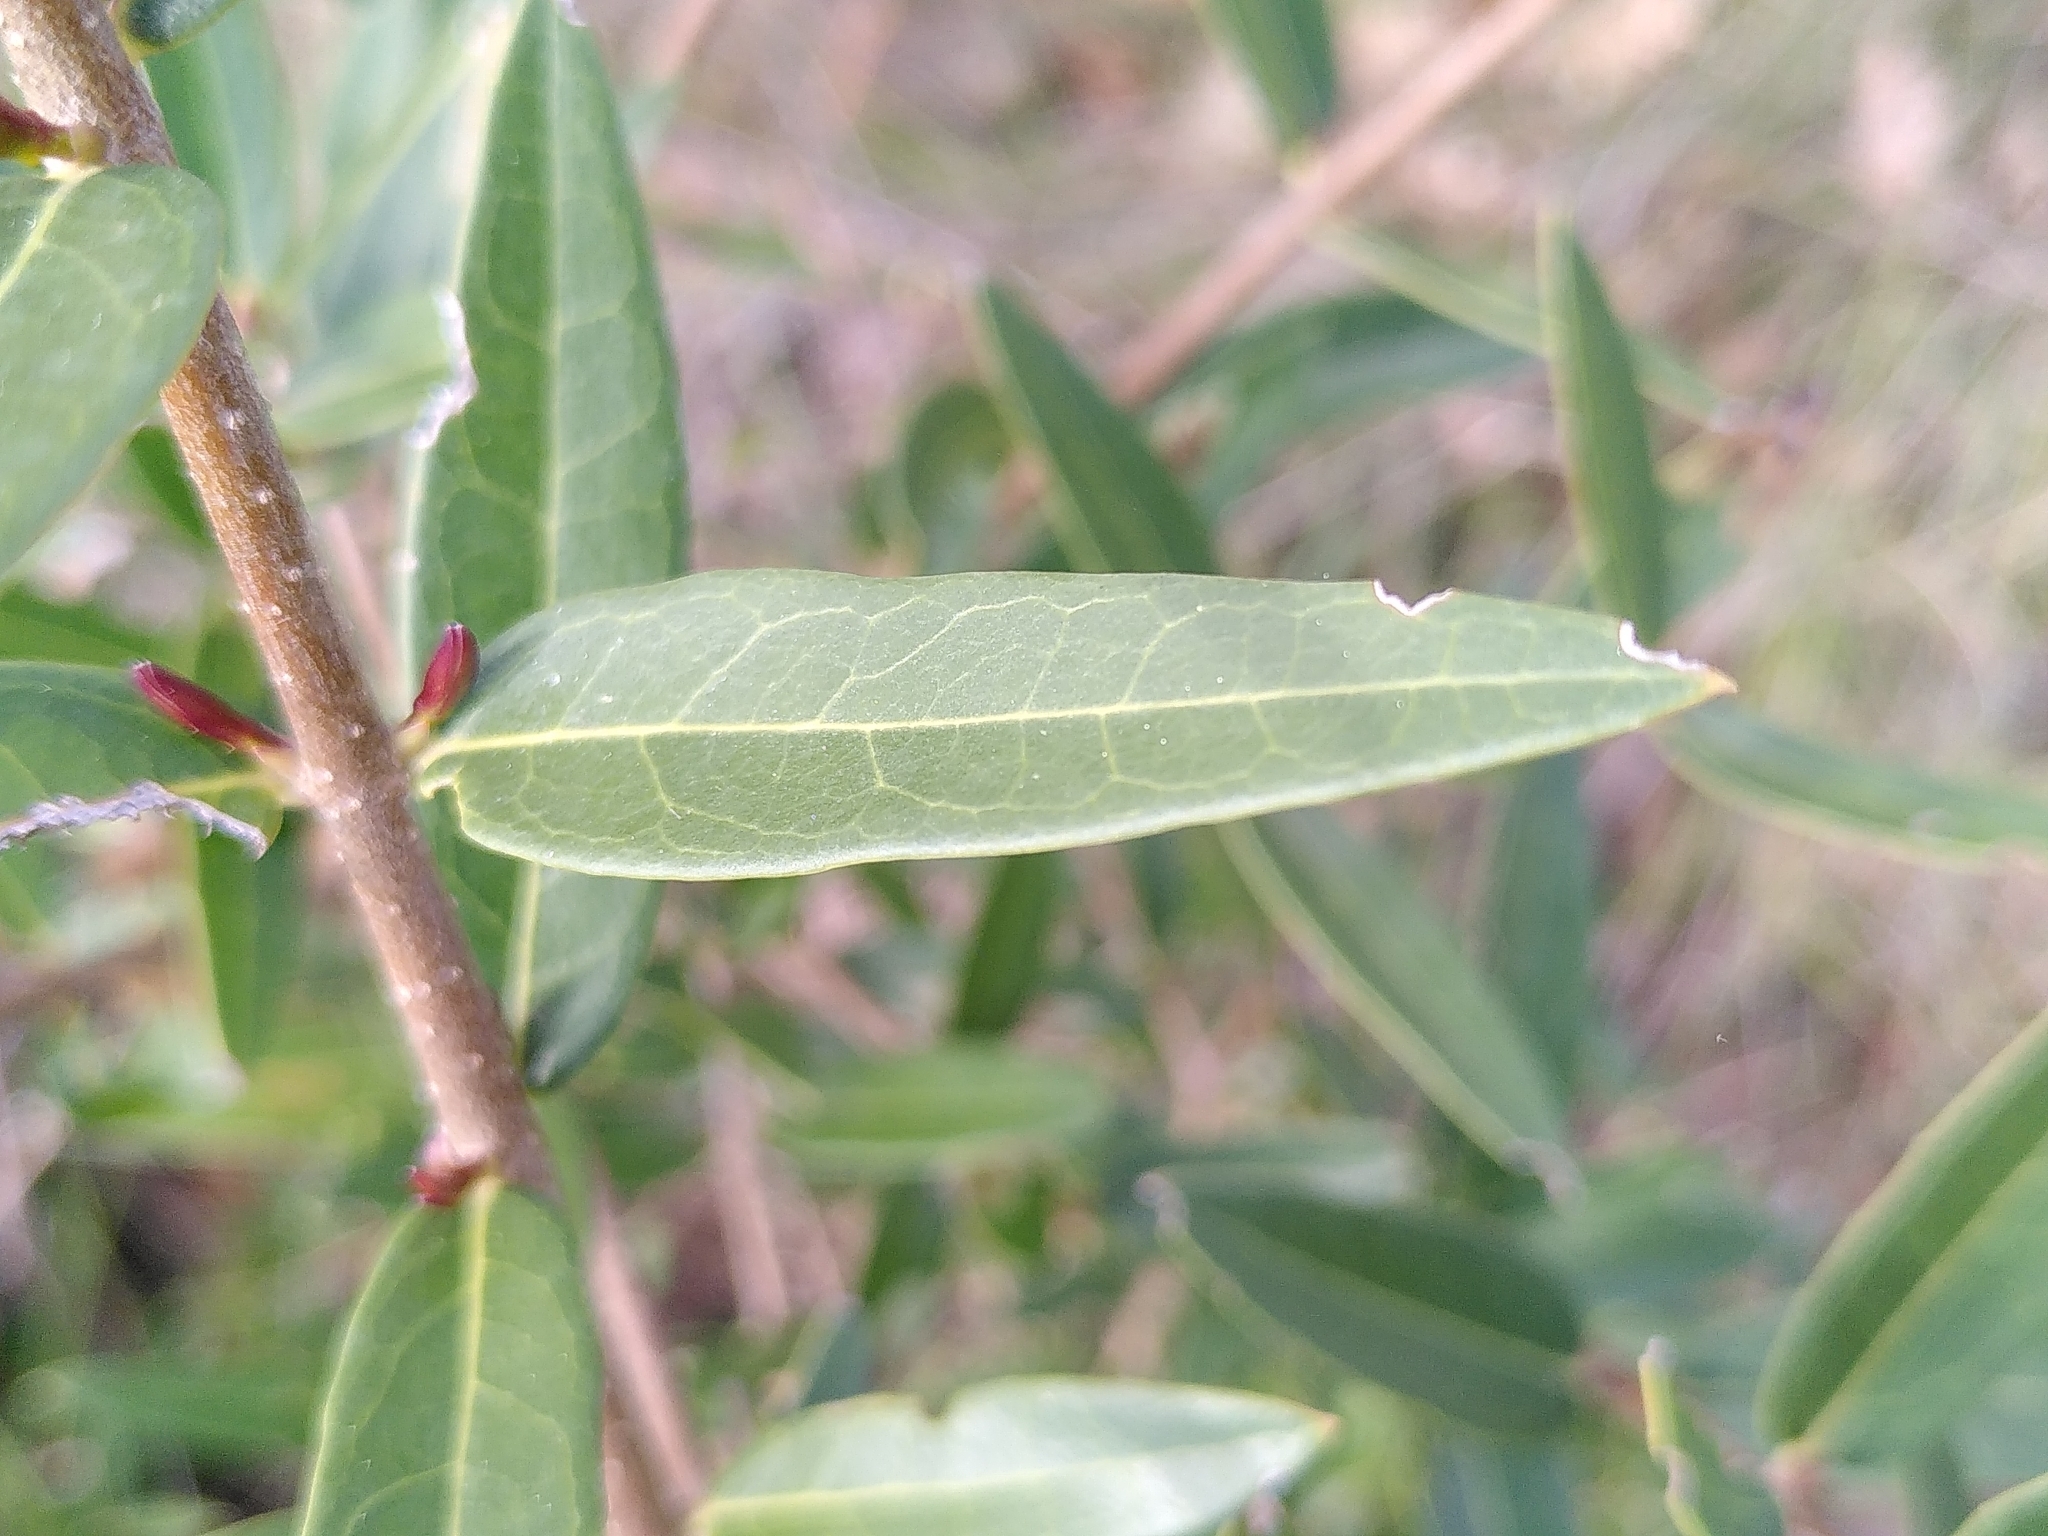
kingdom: Plantae
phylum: Tracheophyta
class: Magnoliopsida
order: Lamiales
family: Oleaceae
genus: Phillyrea
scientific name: Phillyrea angustifolia
